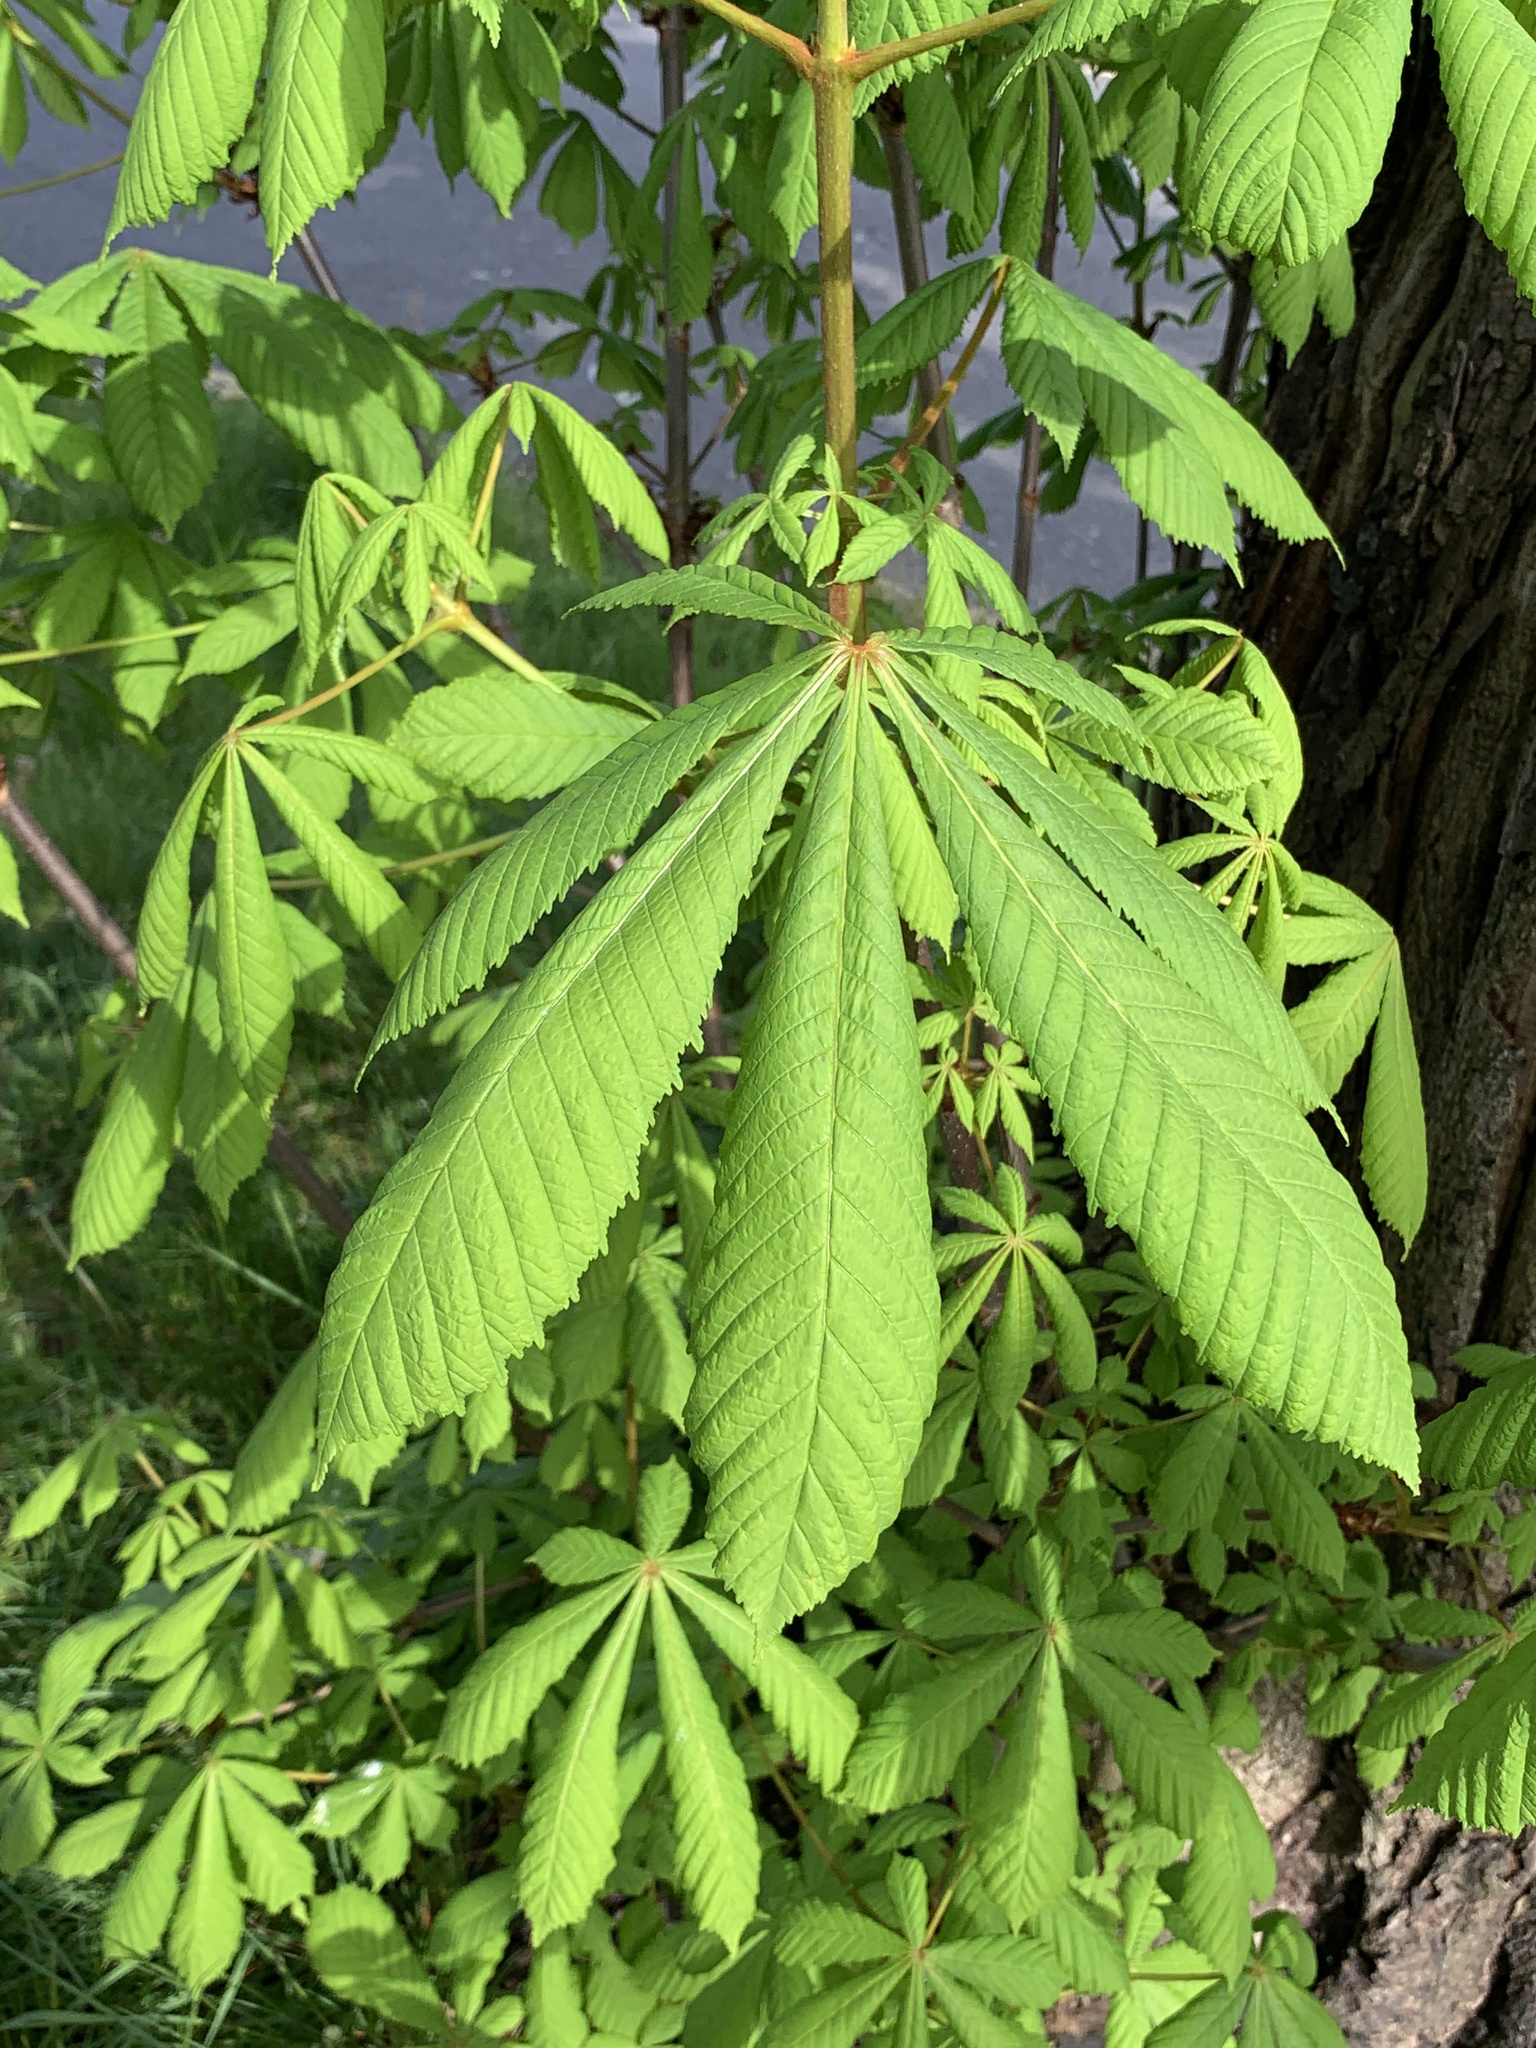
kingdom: Plantae
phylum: Tracheophyta
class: Magnoliopsida
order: Sapindales
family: Sapindaceae
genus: Aesculus
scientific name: Aesculus hippocastanum
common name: Horse-chestnut
